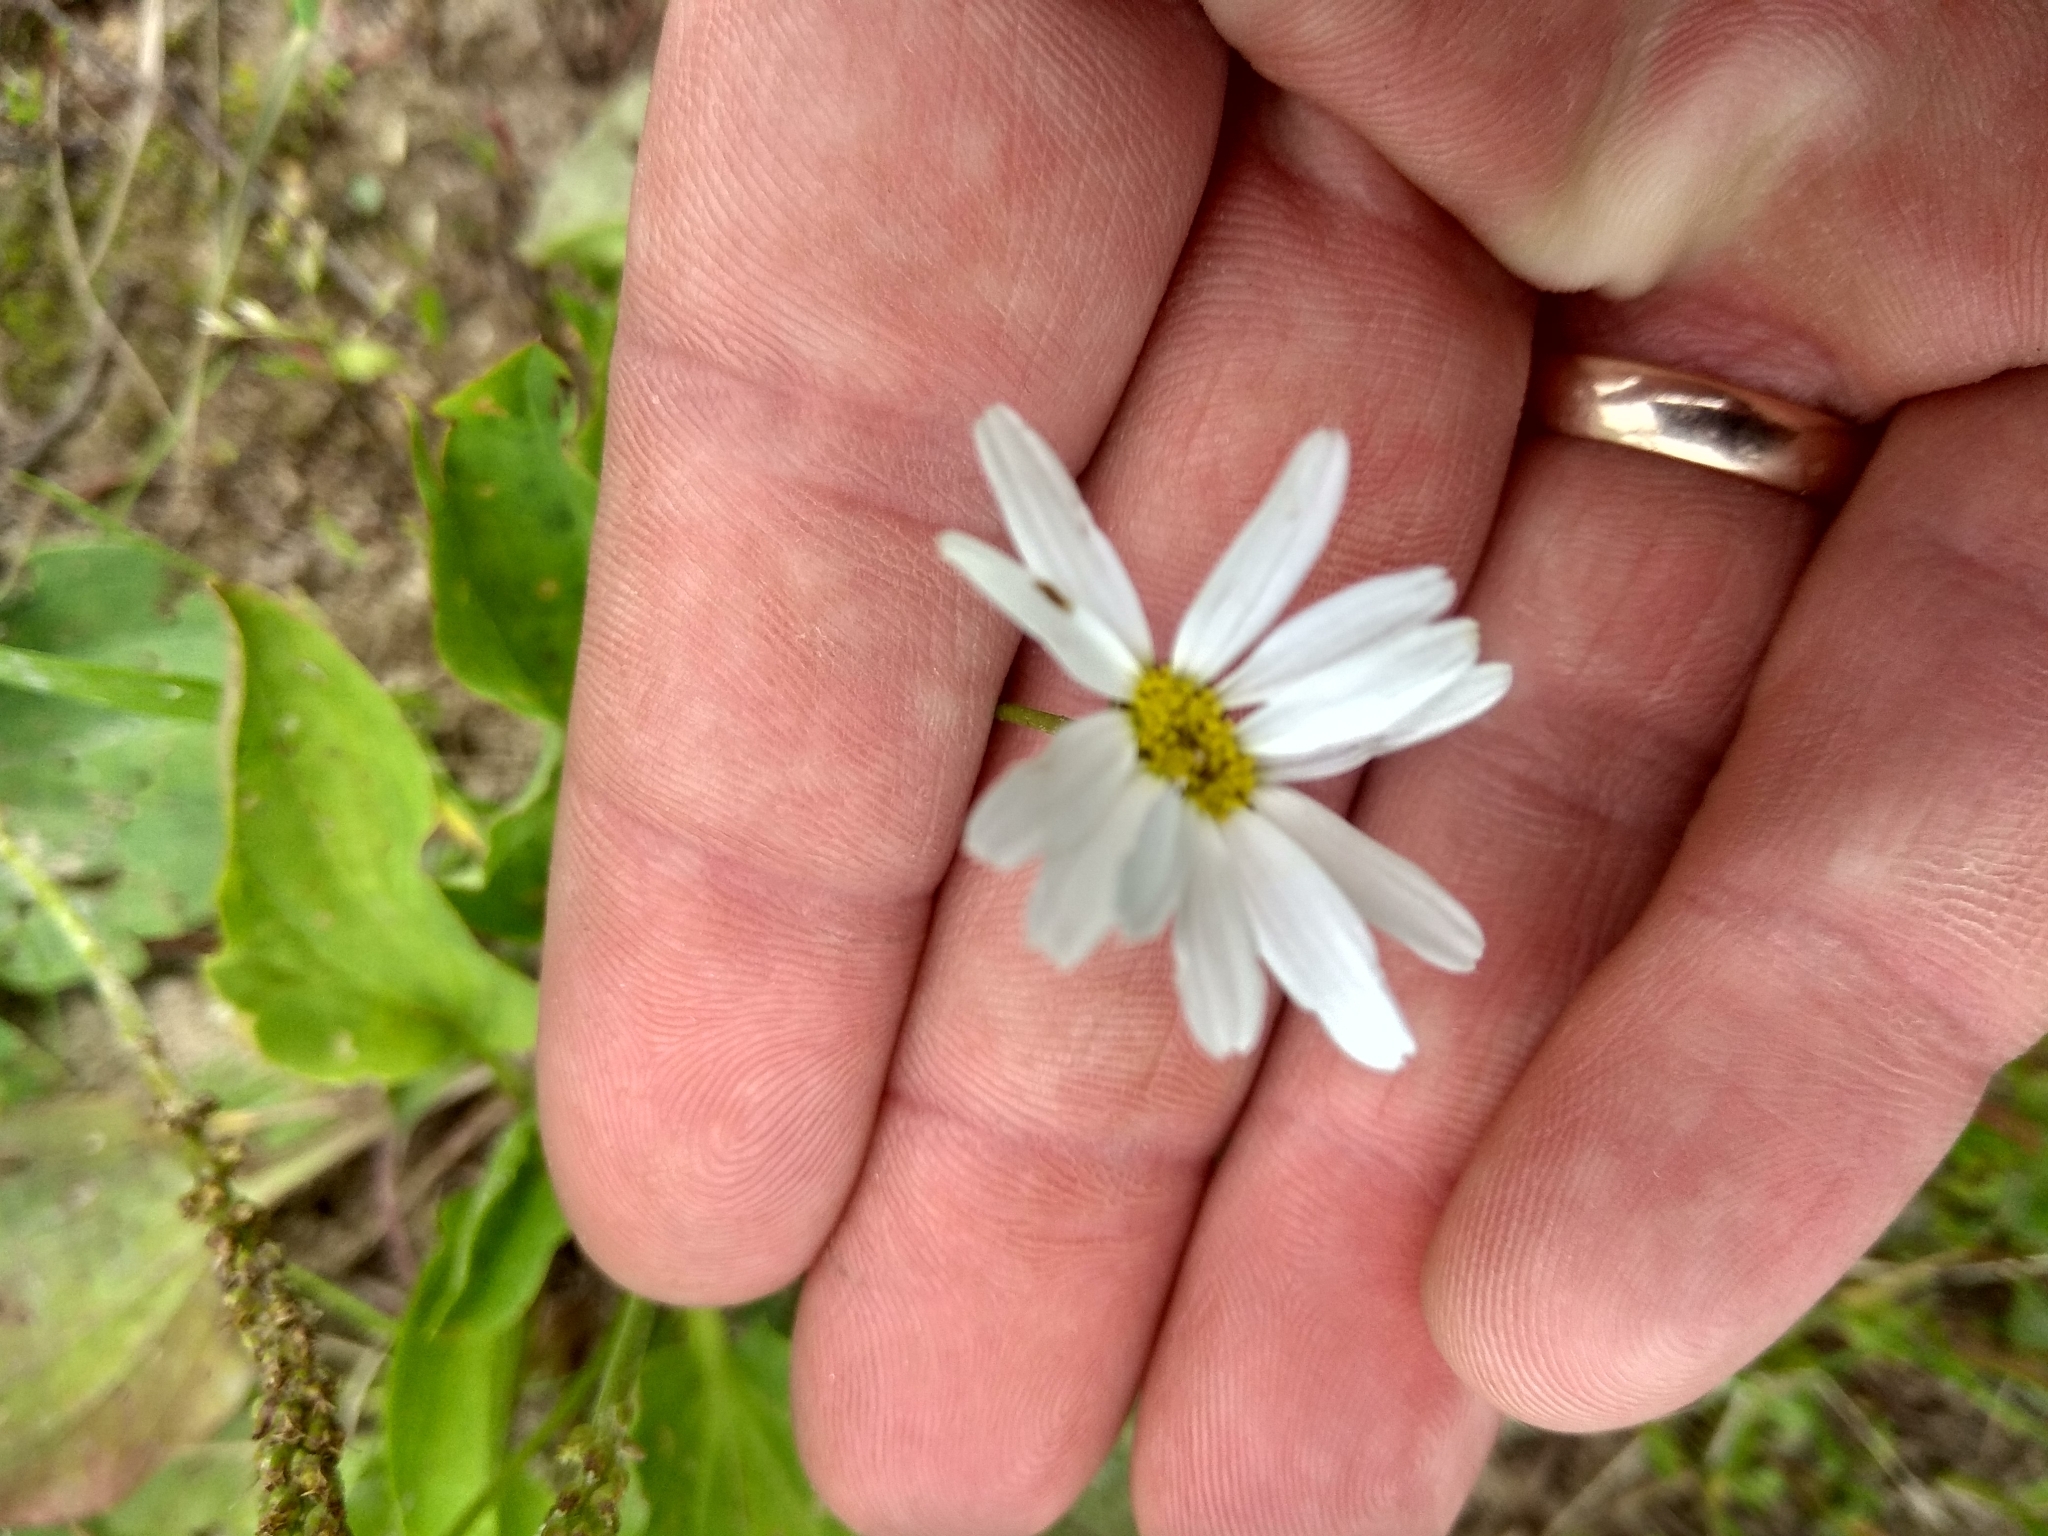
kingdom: Plantae
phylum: Tracheophyta
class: Magnoliopsida
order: Asterales
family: Asteraceae
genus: Tripleurospermum
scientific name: Tripleurospermum inodorum
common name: Scentless mayweed
